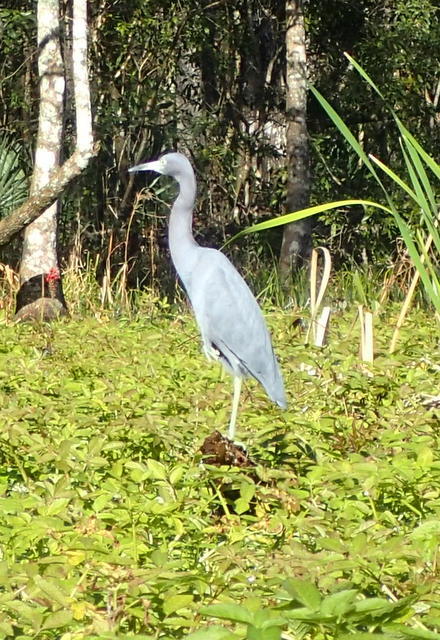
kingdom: Animalia
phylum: Chordata
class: Aves
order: Pelecaniformes
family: Ardeidae
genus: Egretta
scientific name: Egretta caerulea
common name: Little blue heron
